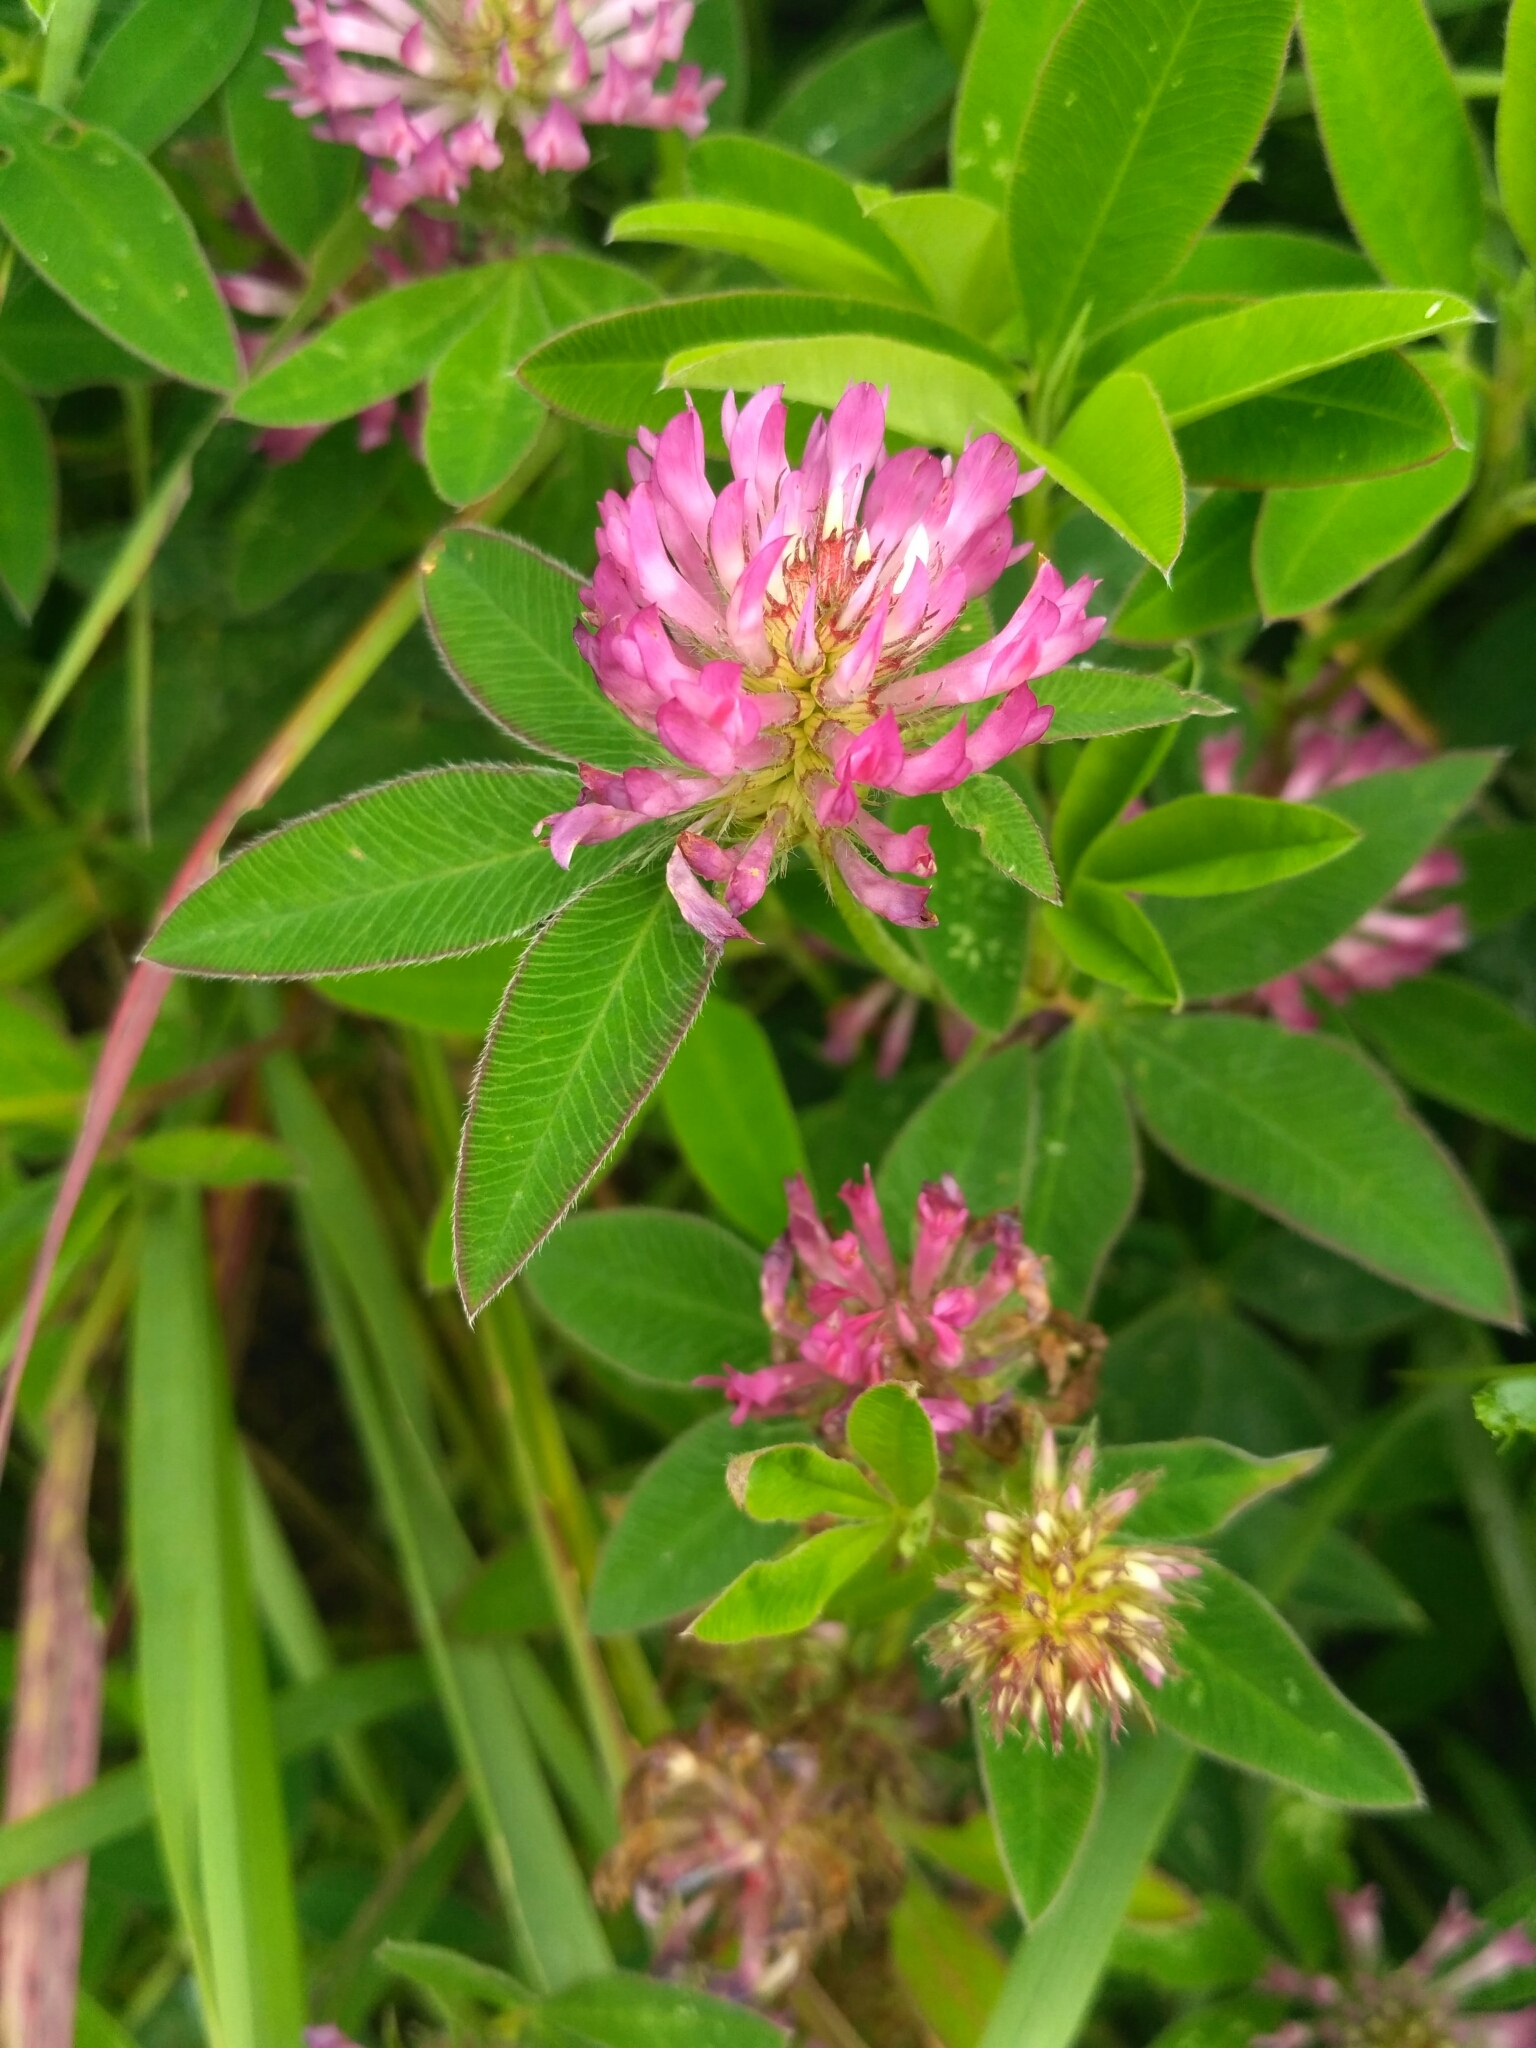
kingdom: Plantae
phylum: Tracheophyta
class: Magnoliopsida
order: Fabales
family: Fabaceae
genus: Trifolium
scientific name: Trifolium medium
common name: Zigzag clover
